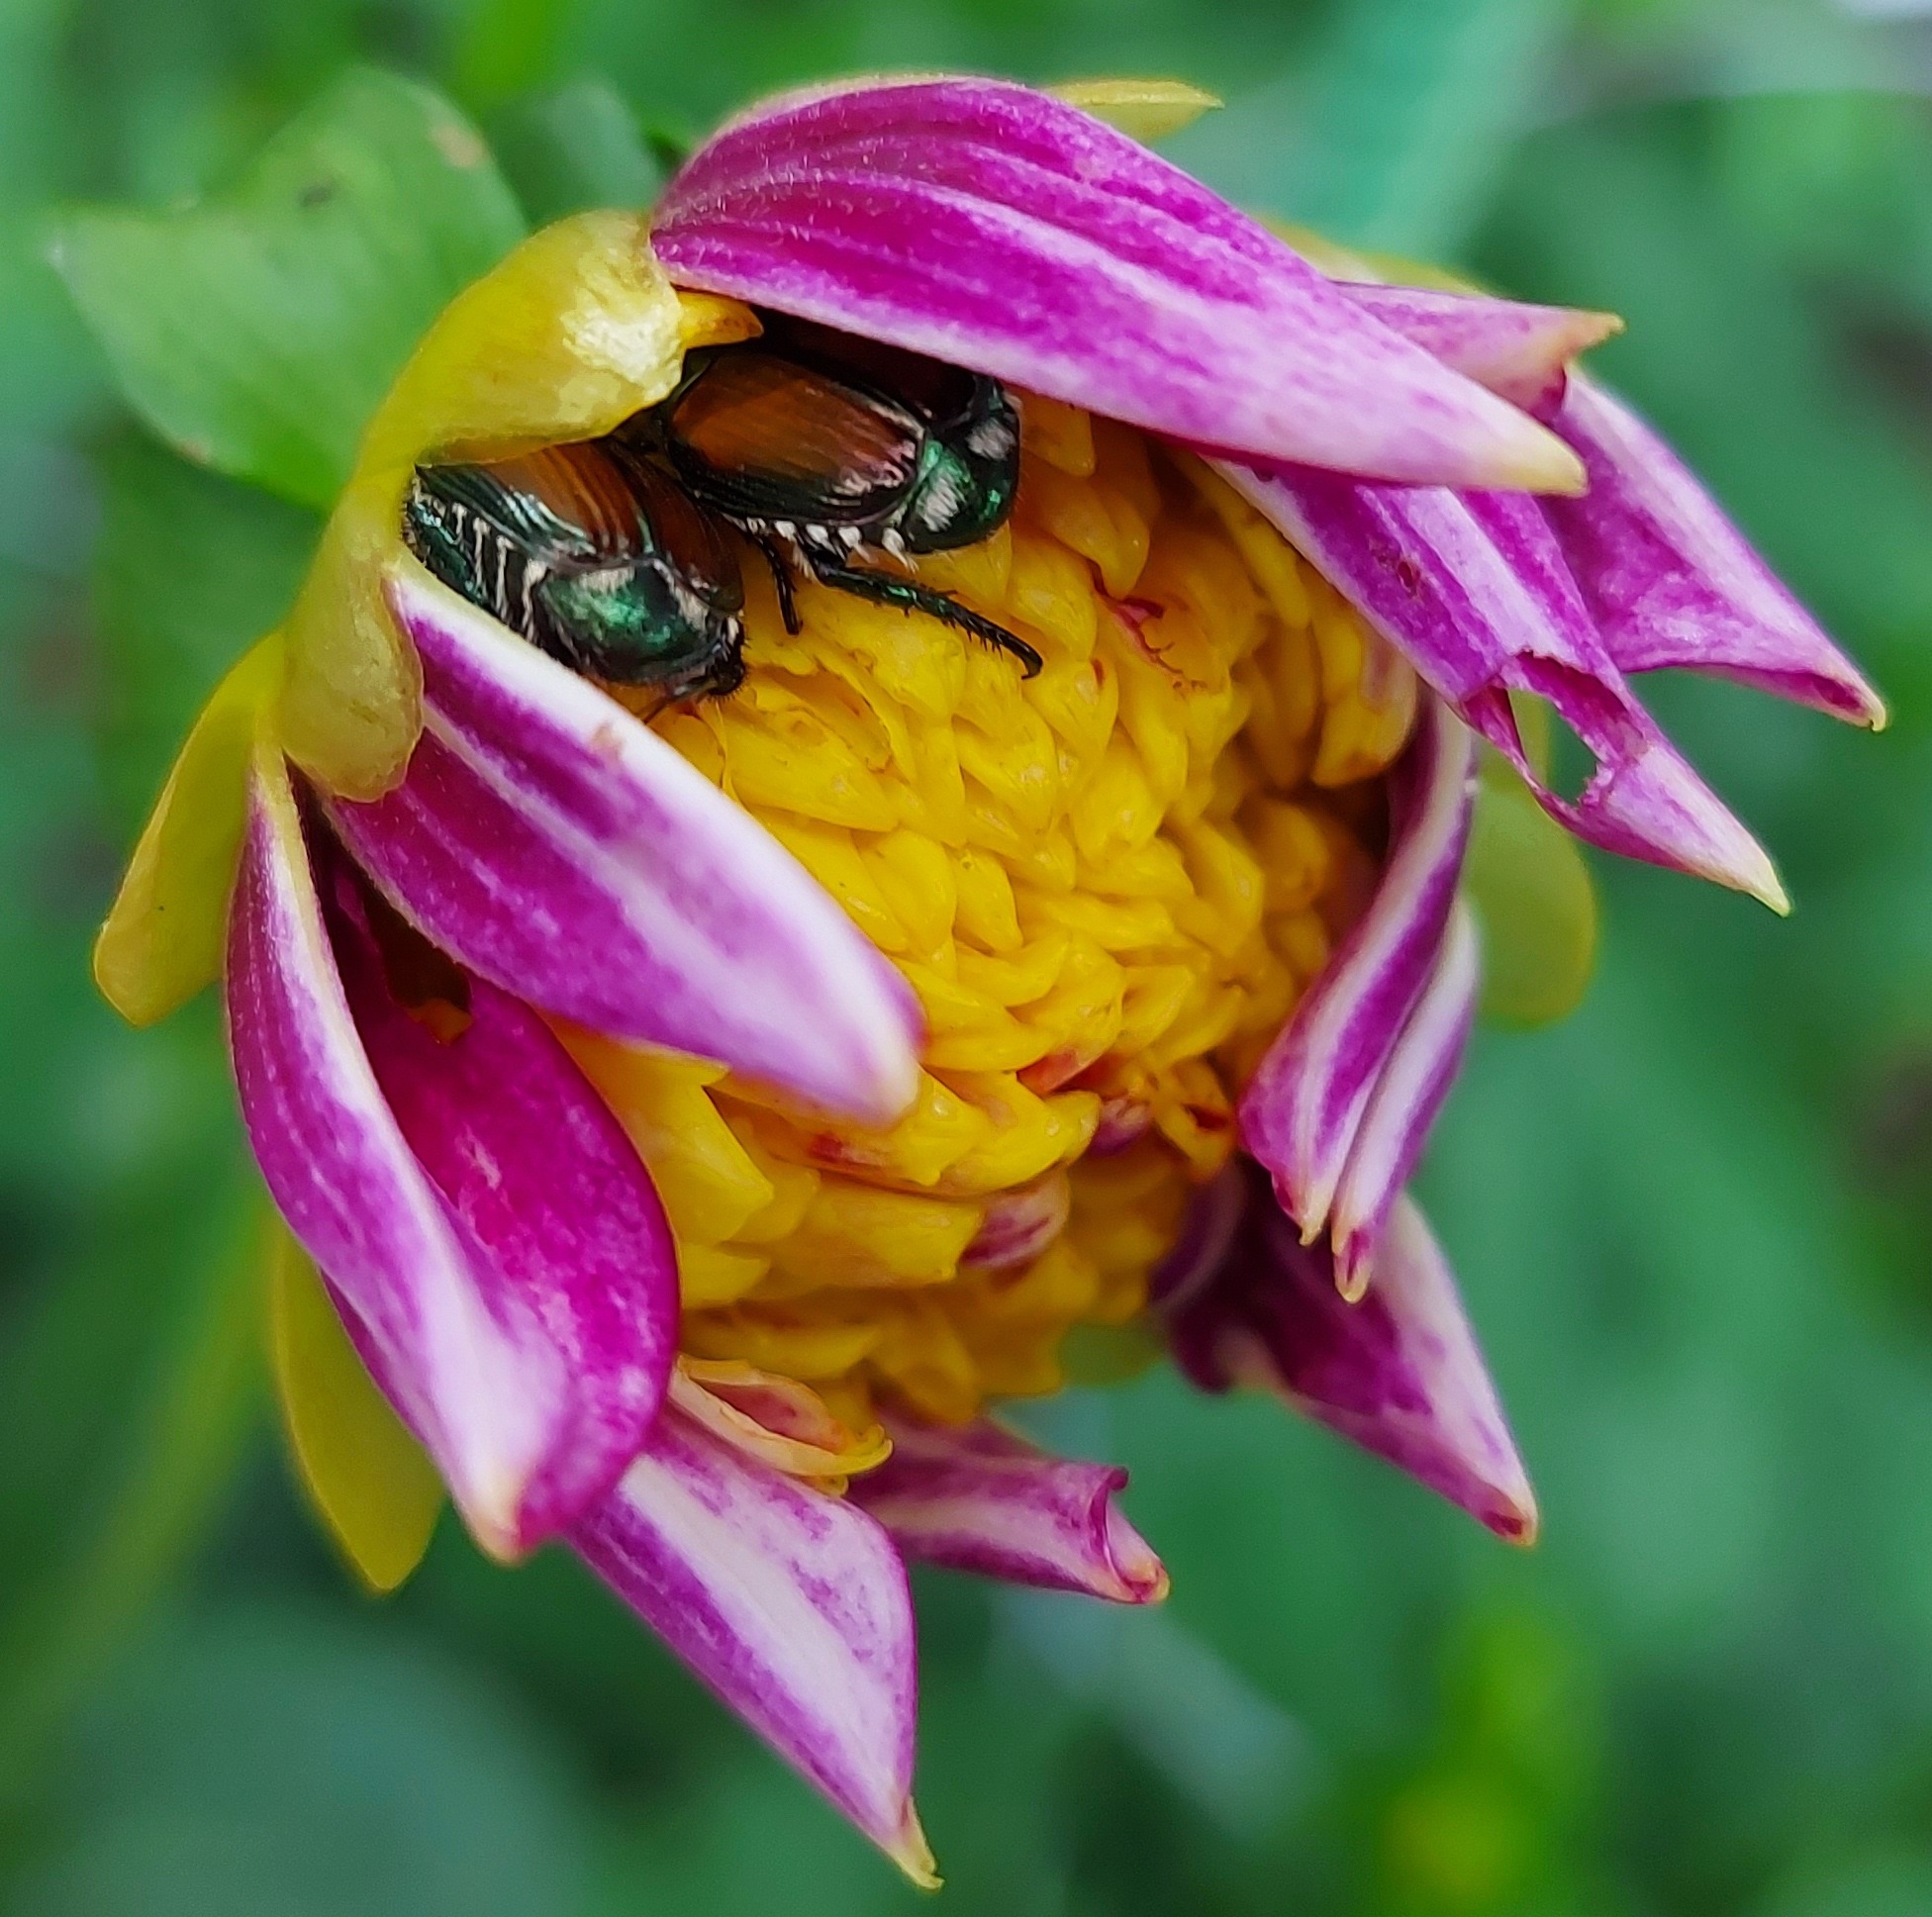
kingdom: Animalia
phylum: Arthropoda
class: Insecta
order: Coleoptera
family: Scarabaeidae
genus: Popillia
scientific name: Popillia japonica
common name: Japanese beetle
